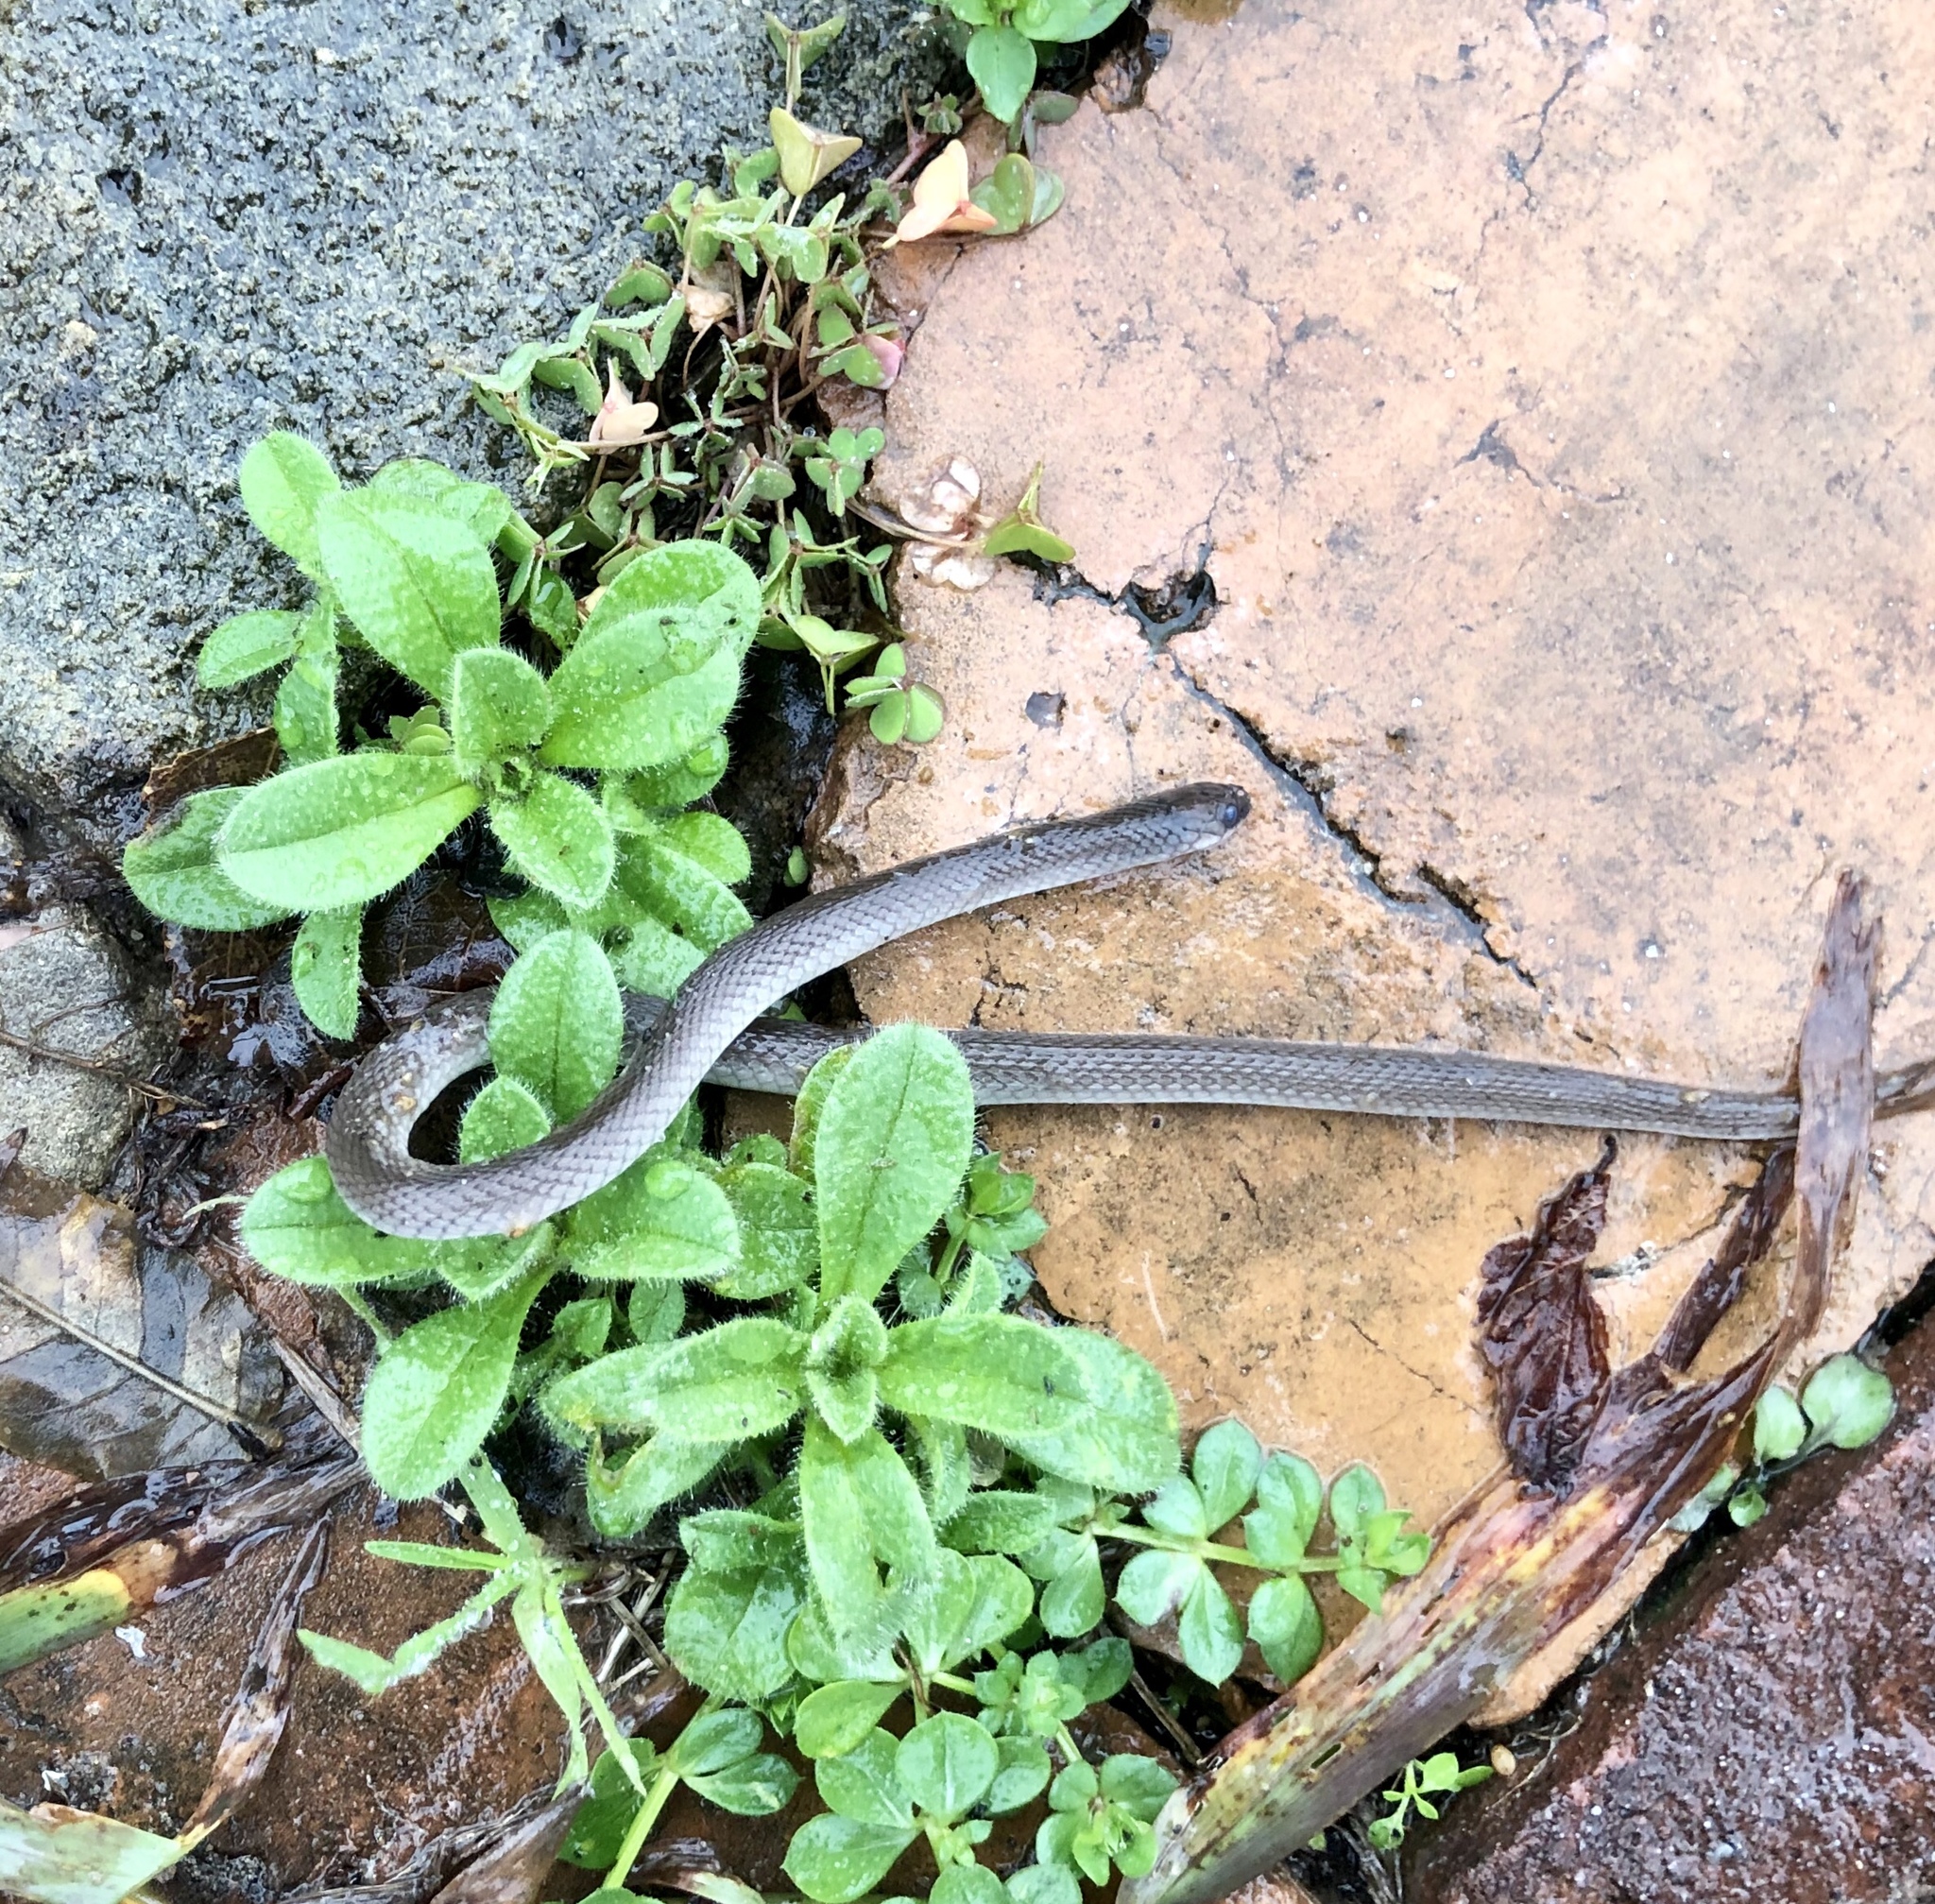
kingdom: Animalia
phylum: Chordata
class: Squamata
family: Colubridae
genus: Haldea
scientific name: Haldea striatula
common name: Rough earth snake
